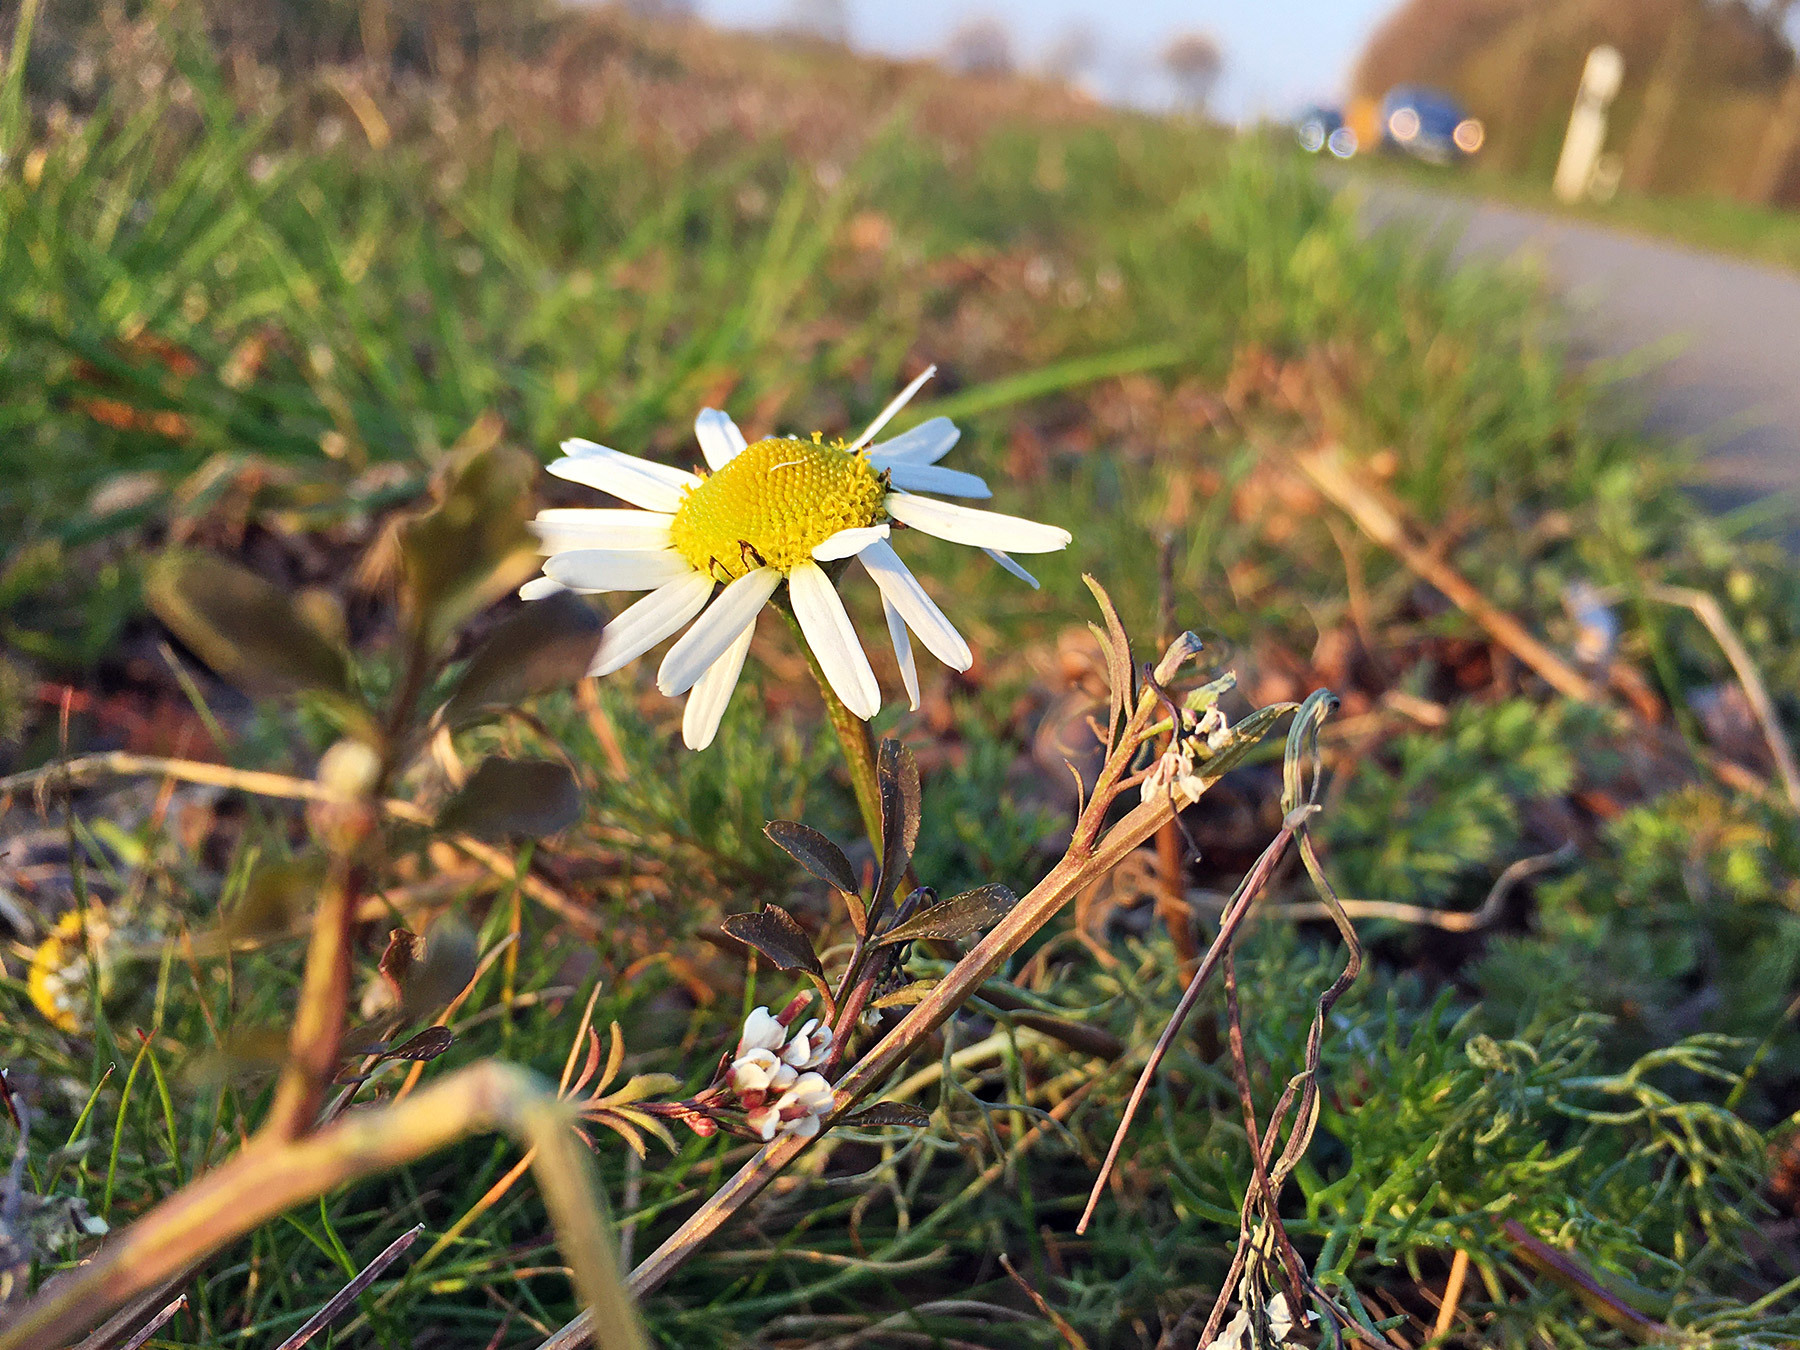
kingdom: Plantae
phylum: Tracheophyta
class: Magnoliopsida
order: Asterales
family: Asteraceae
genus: Tripleurospermum
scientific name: Tripleurospermum inodorum
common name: Scentless mayweed
